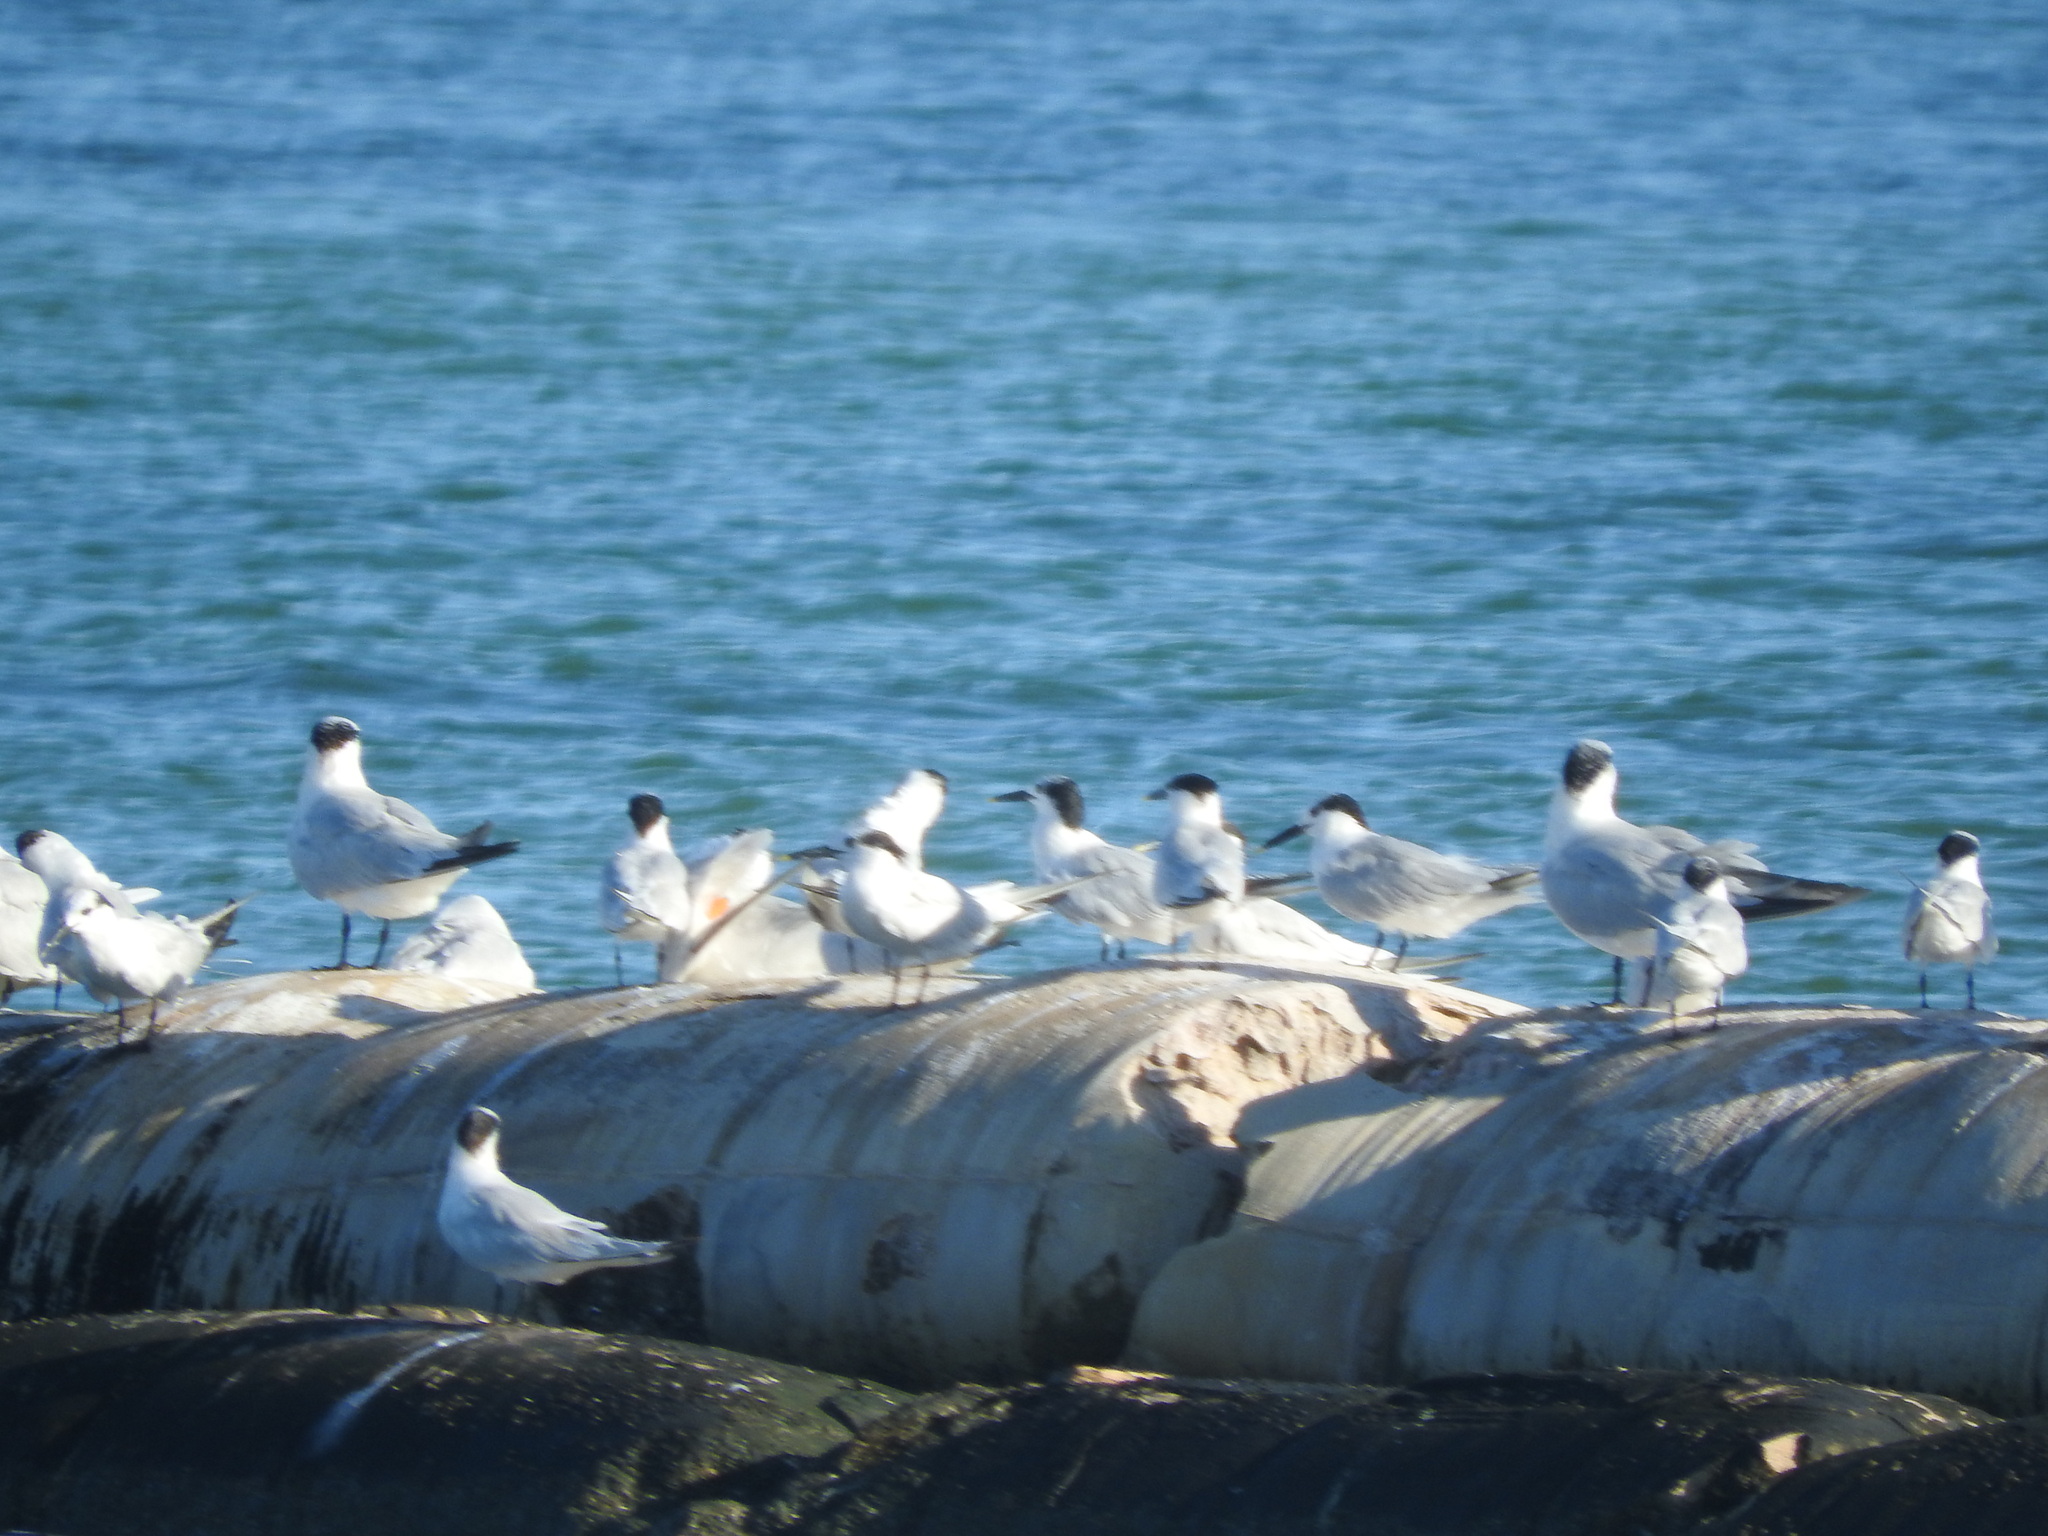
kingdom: Animalia
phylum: Chordata
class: Aves
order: Charadriiformes
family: Laridae
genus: Thalasseus
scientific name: Thalasseus sandvicensis
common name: Sandwich tern
